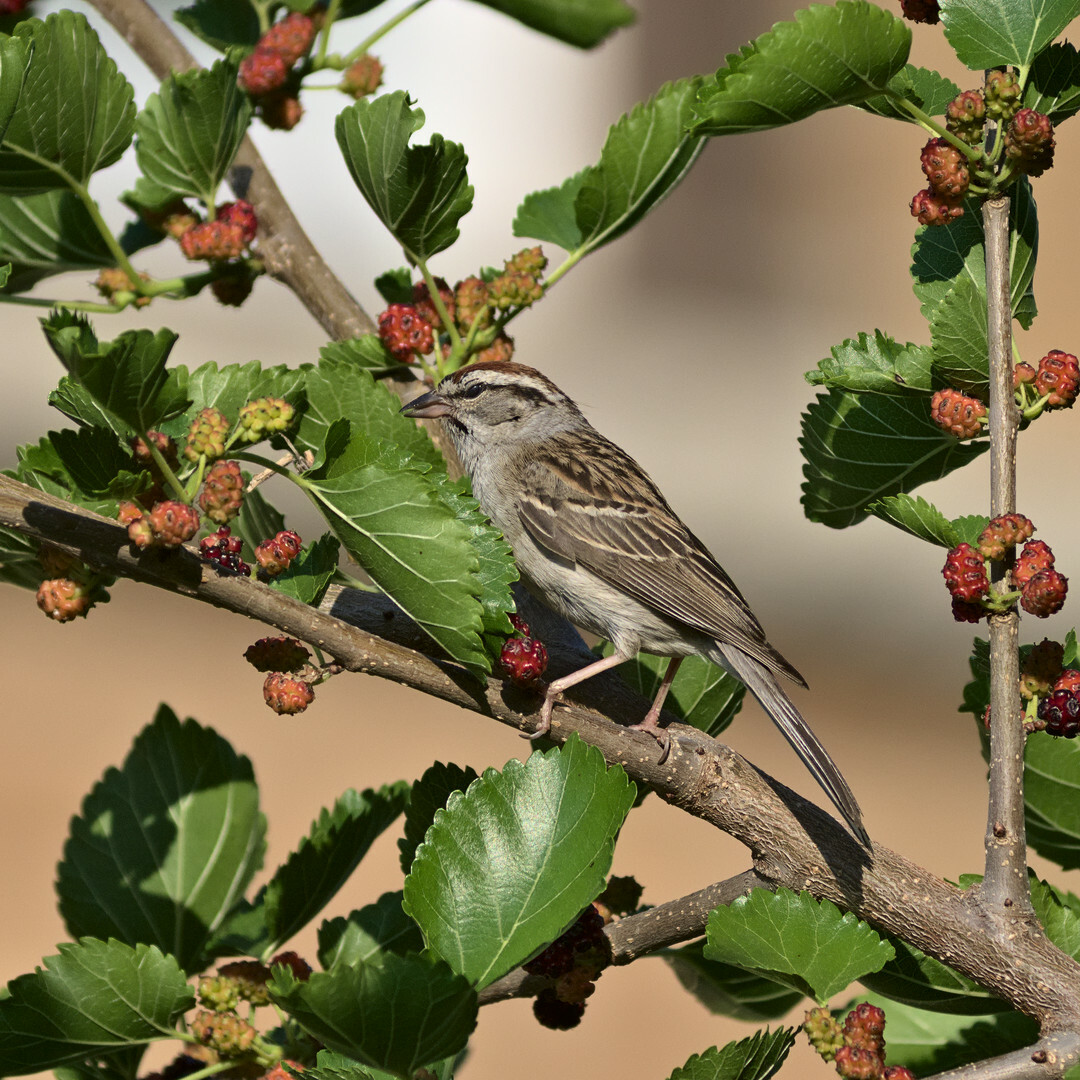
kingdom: Animalia
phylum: Chordata
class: Aves
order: Passeriformes
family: Passerellidae
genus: Spizella
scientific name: Spizella passerina
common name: Chipping sparrow
